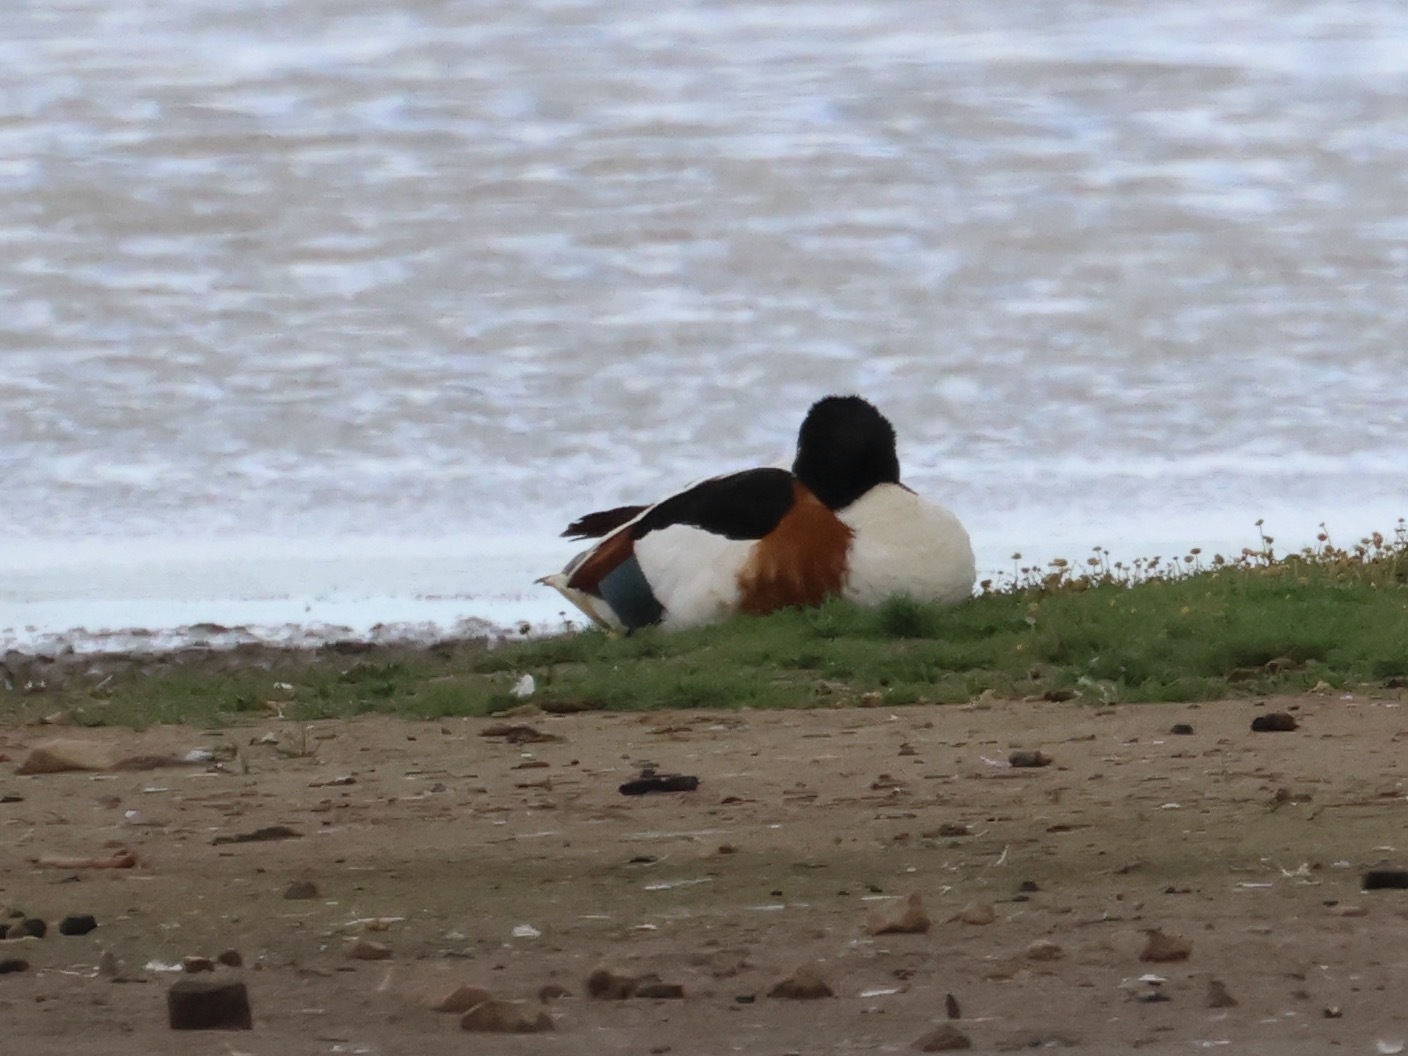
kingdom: Animalia
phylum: Chordata
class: Aves
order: Anseriformes
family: Anatidae
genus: Tadorna
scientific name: Tadorna tadorna
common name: Common shelduck
